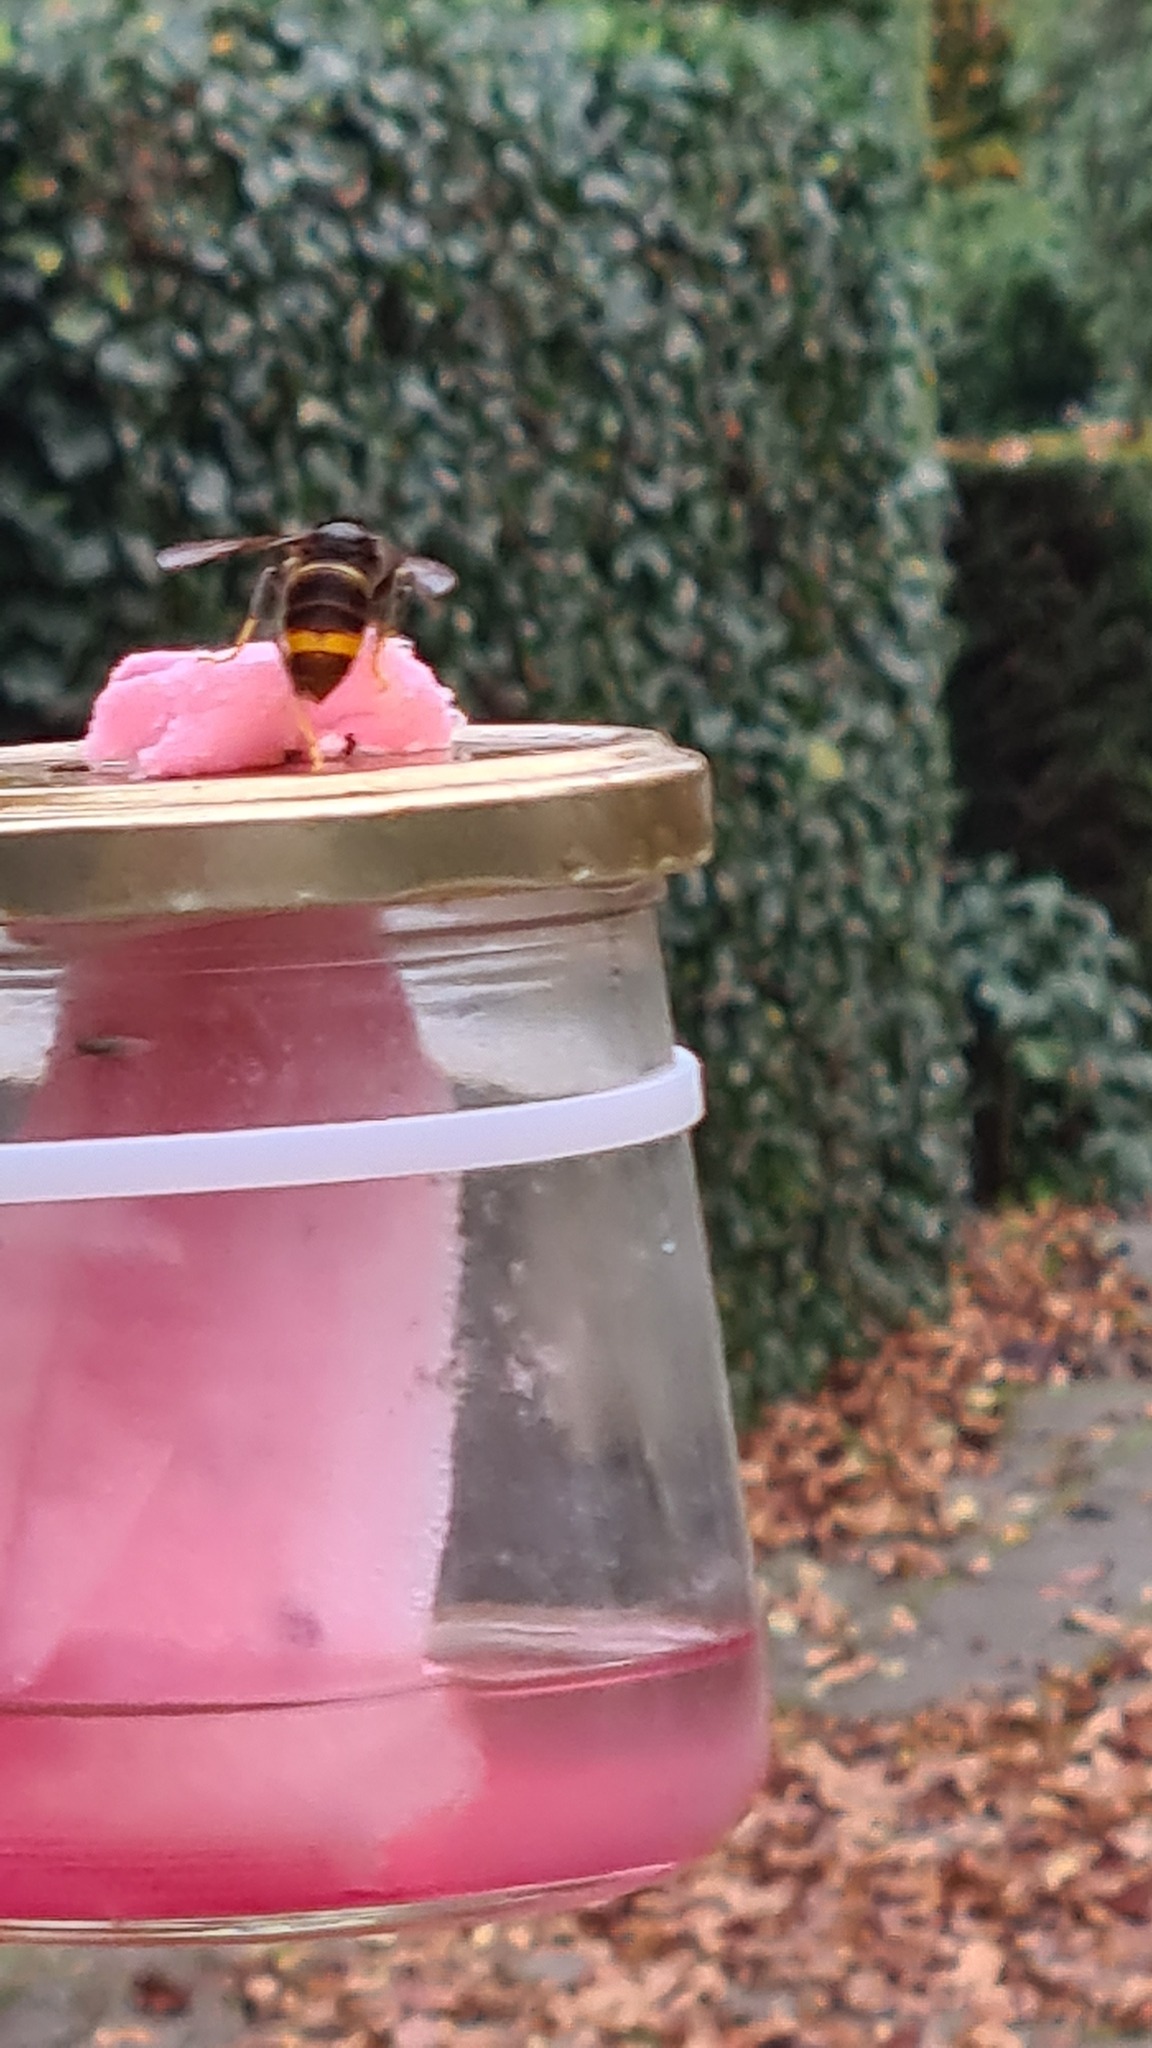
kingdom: Animalia
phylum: Arthropoda
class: Insecta
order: Hymenoptera
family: Vespidae
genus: Vespa
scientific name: Vespa velutina
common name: Asian hornet
